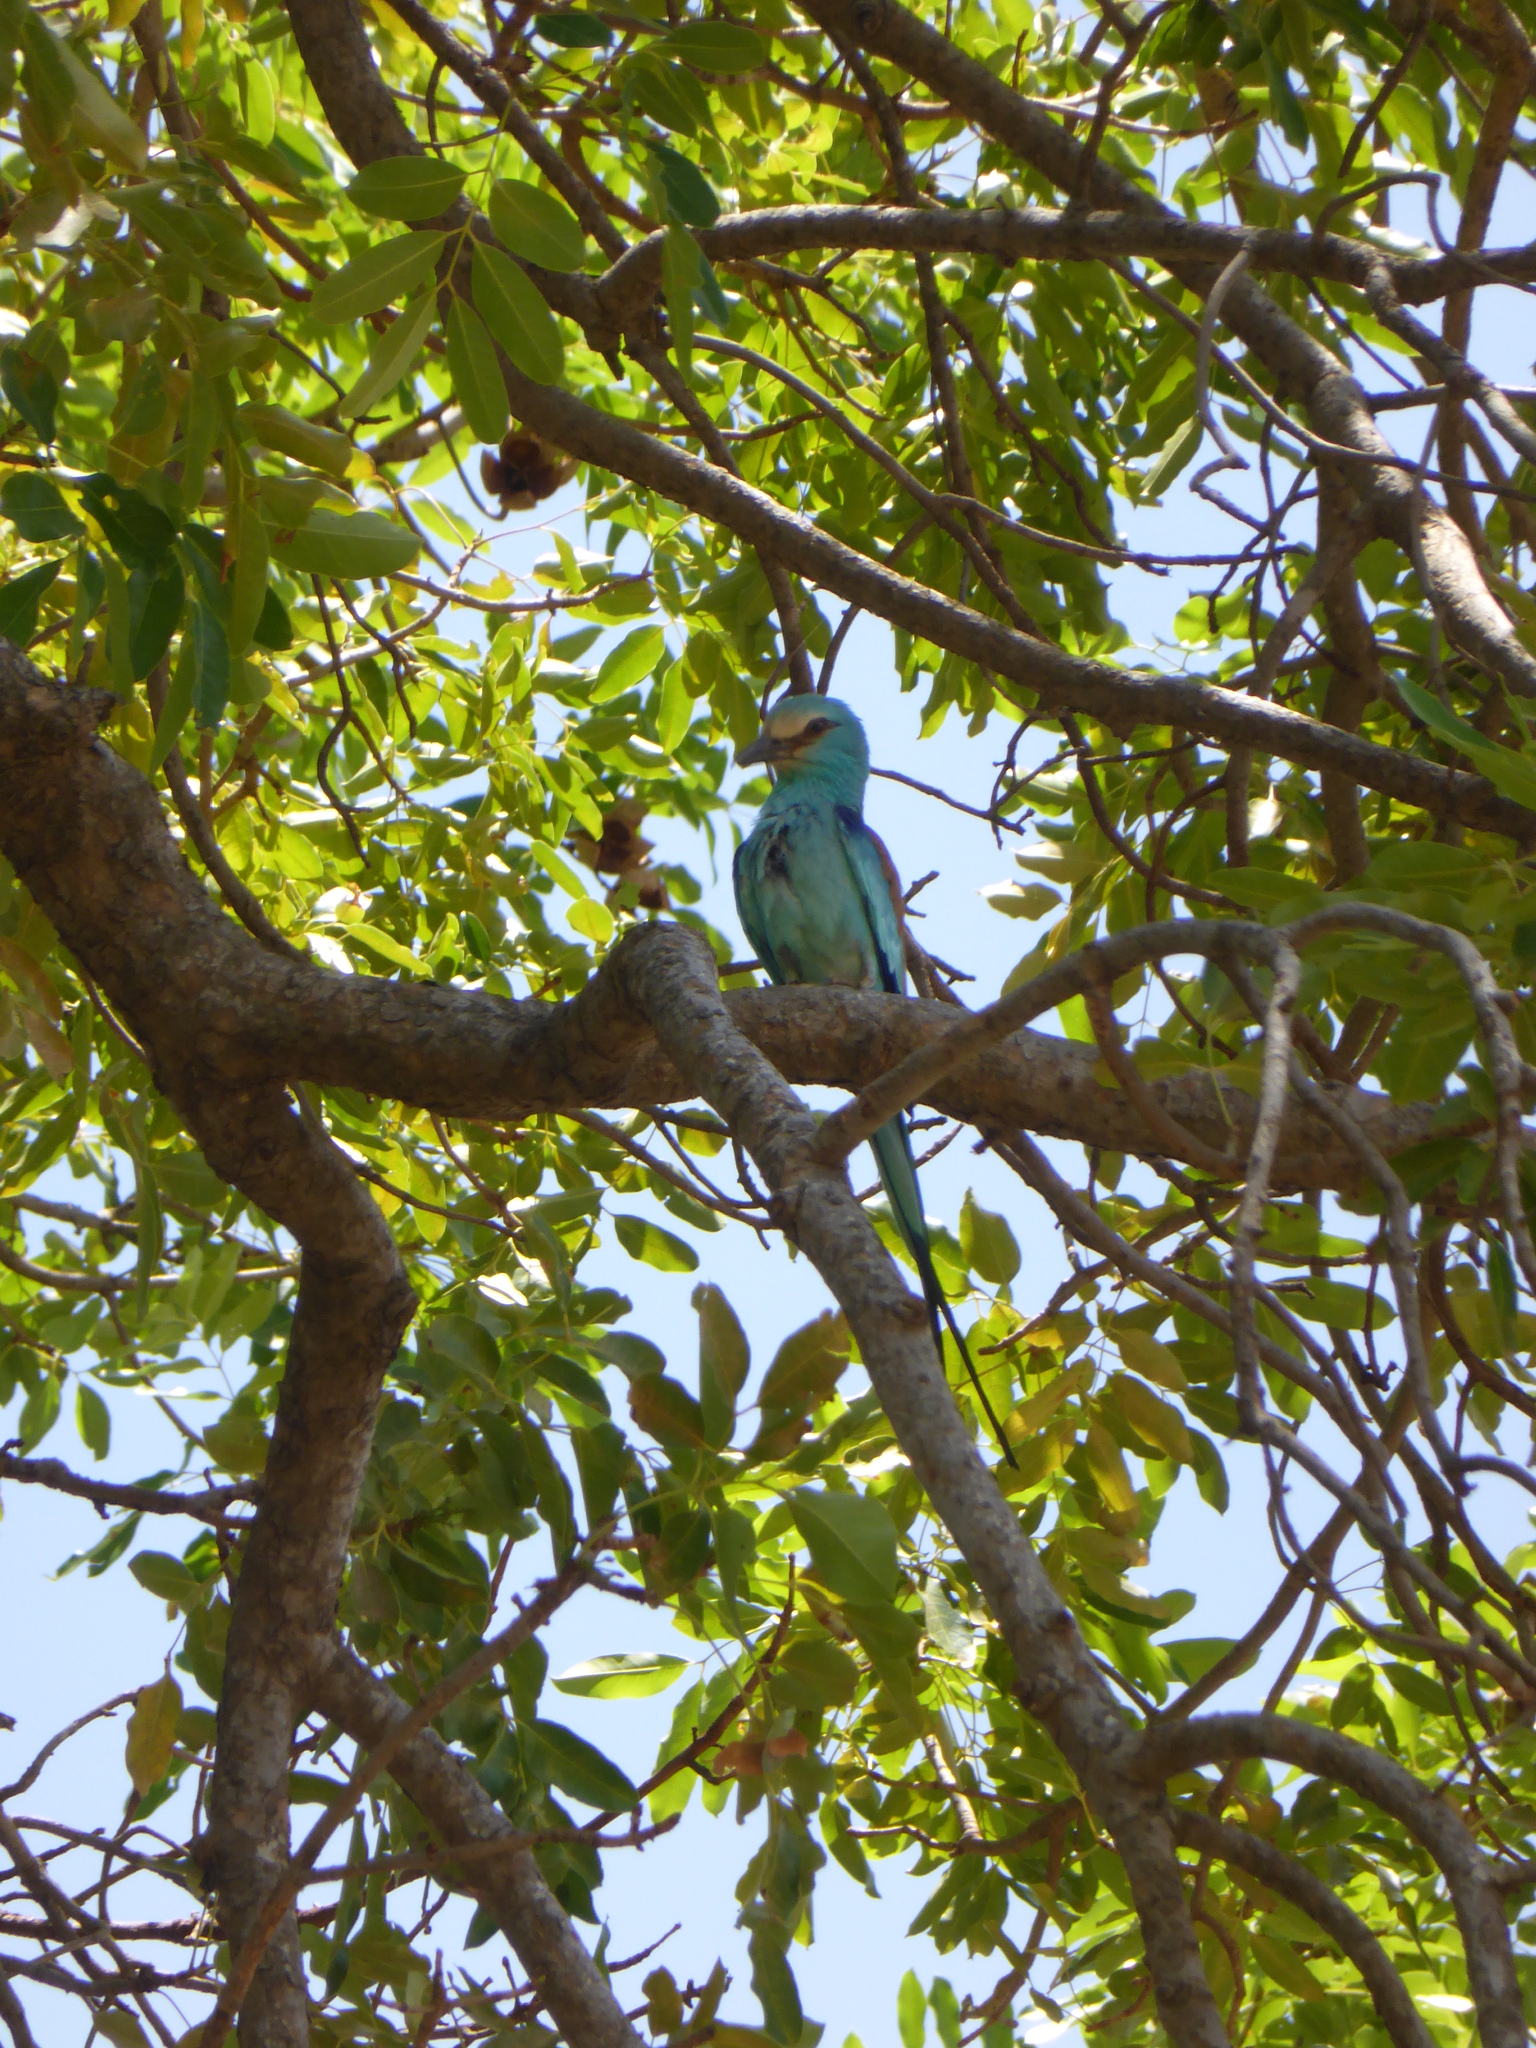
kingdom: Animalia
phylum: Chordata
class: Aves
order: Coraciiformes
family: Coraciidae
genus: Coracias
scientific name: Coracias abyssinicus
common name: Abyssinian roller
